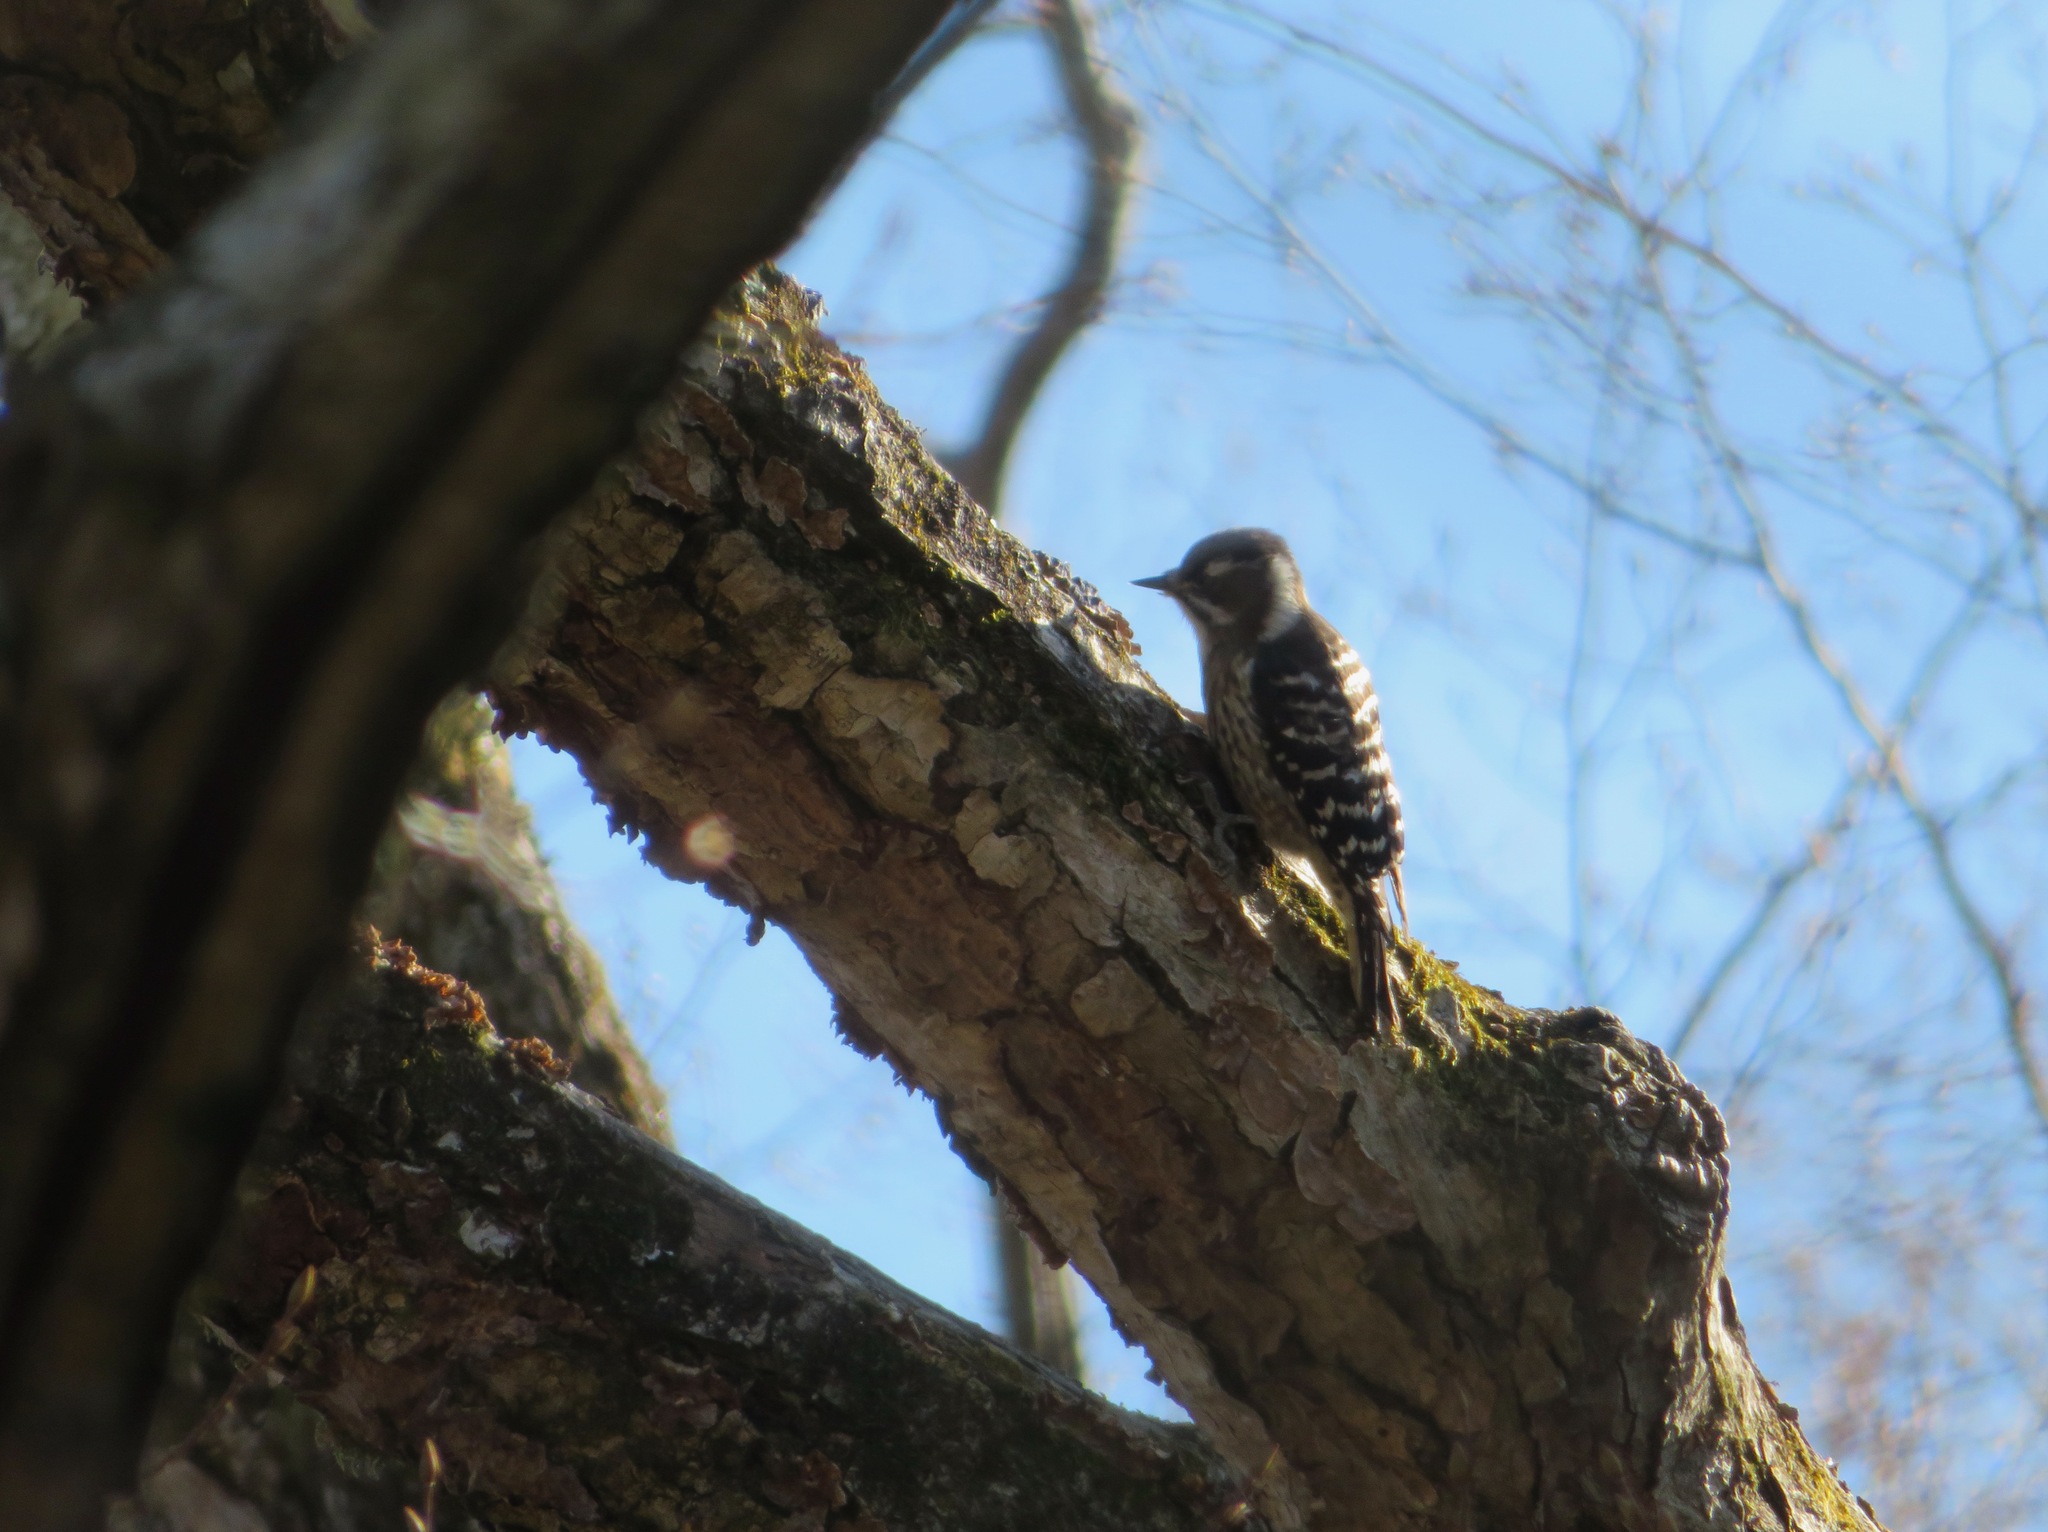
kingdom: Animalia
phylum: Chordata
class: Aves
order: Piciformes
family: Picidae
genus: Yungipicus
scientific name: Yungipicus kizuki
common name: Japanese pygmy woodpecker
